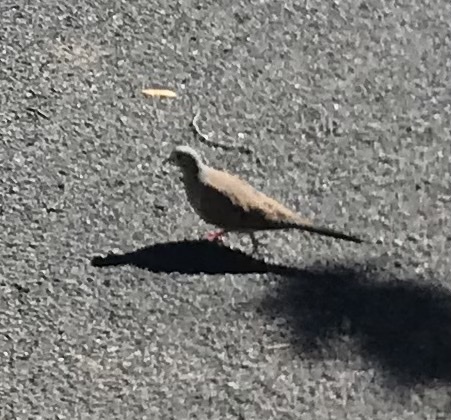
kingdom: Animalia
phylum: Chordata
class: Aves
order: Columbiformes
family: Columbidae
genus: Zenaida
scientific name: Zenaida macroura
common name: Mourning dove
